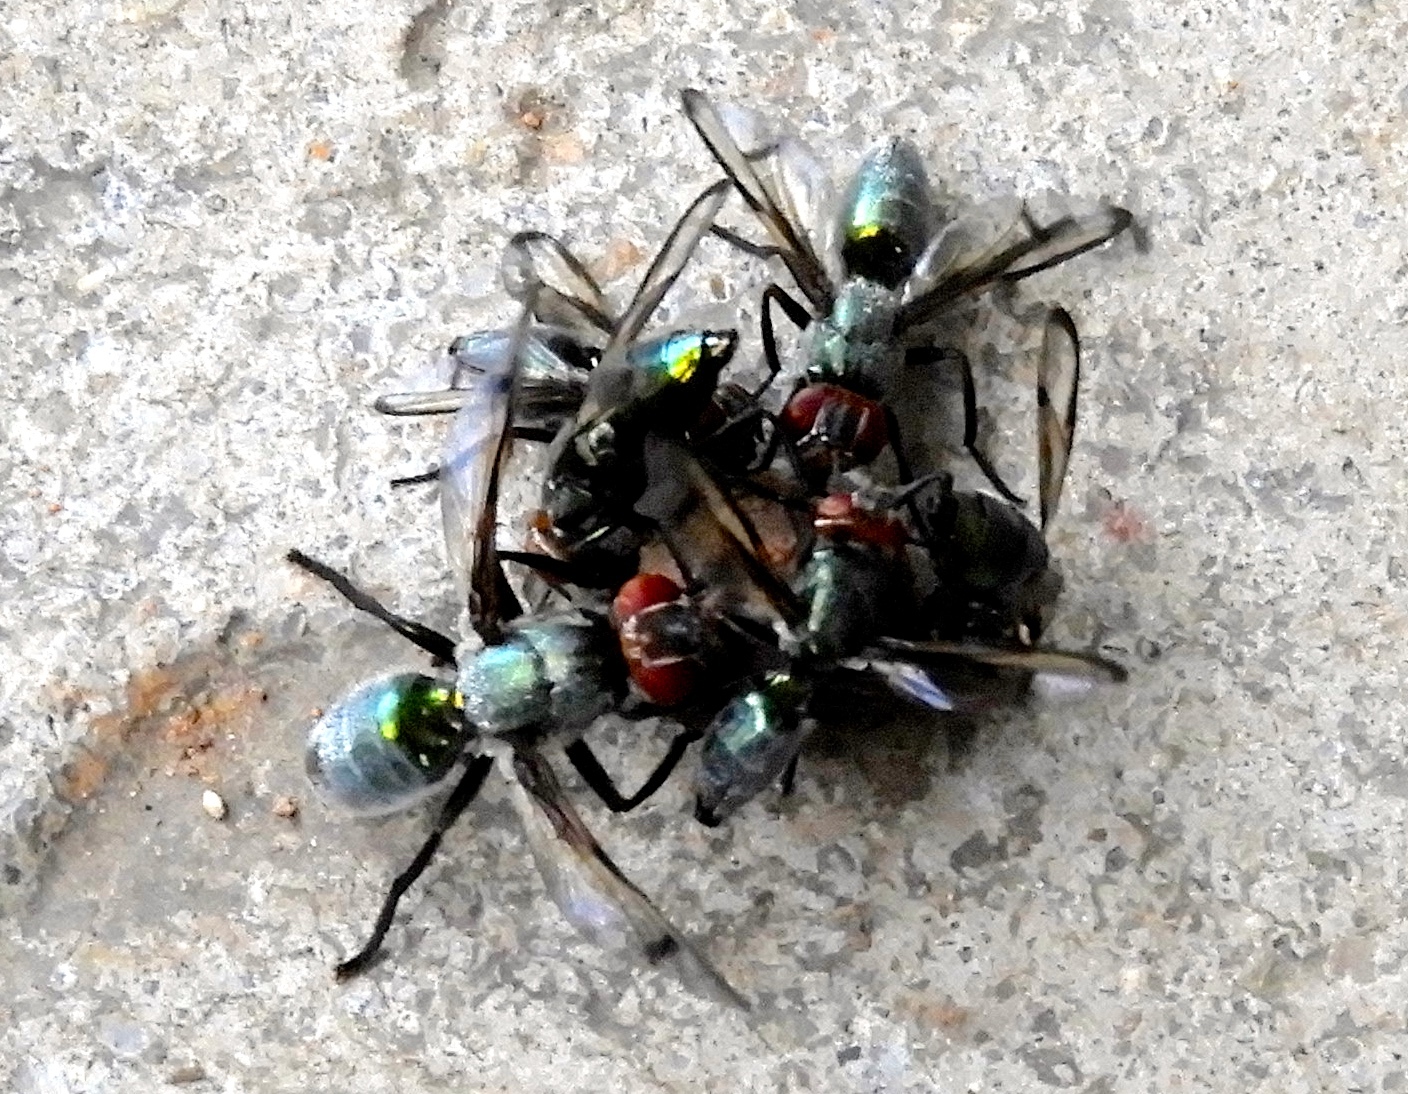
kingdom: Animalia
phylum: Arthropoda
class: Insecta
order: Diptera
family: Platystomatidae
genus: Senopterina
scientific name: Senopterina
